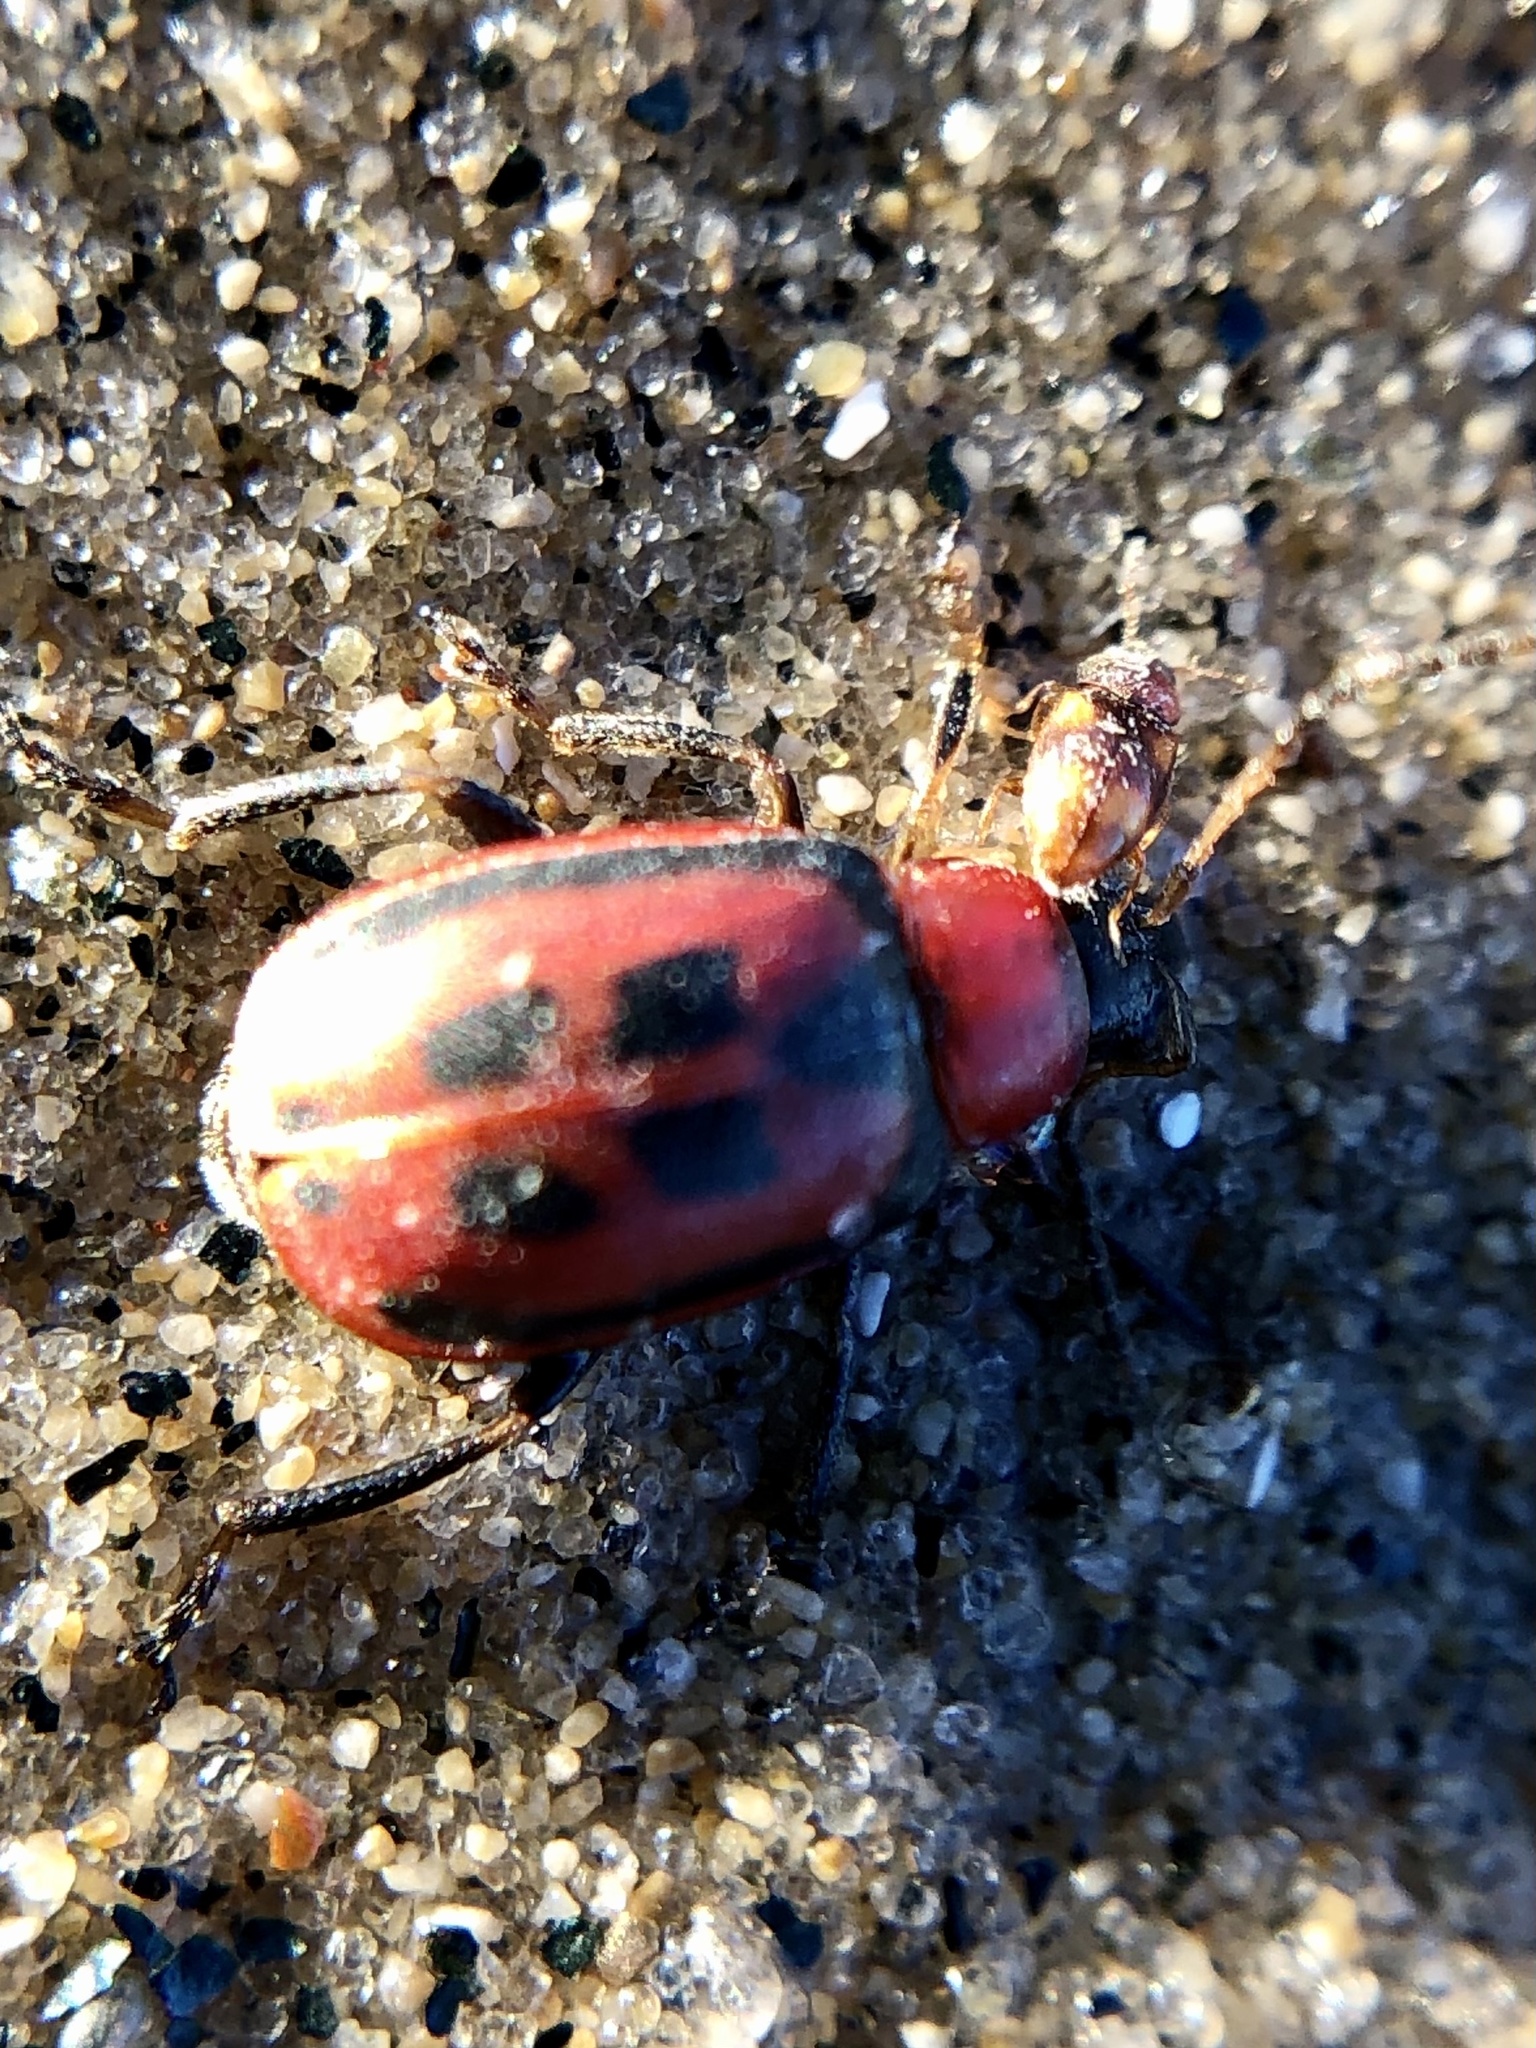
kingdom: Animalia
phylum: Arthropoda
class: Insecta
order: Coleoptera
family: Chrysomelidae
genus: Cerotoma
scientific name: Cerotoma trifurcata
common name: Bean leaf beetle
